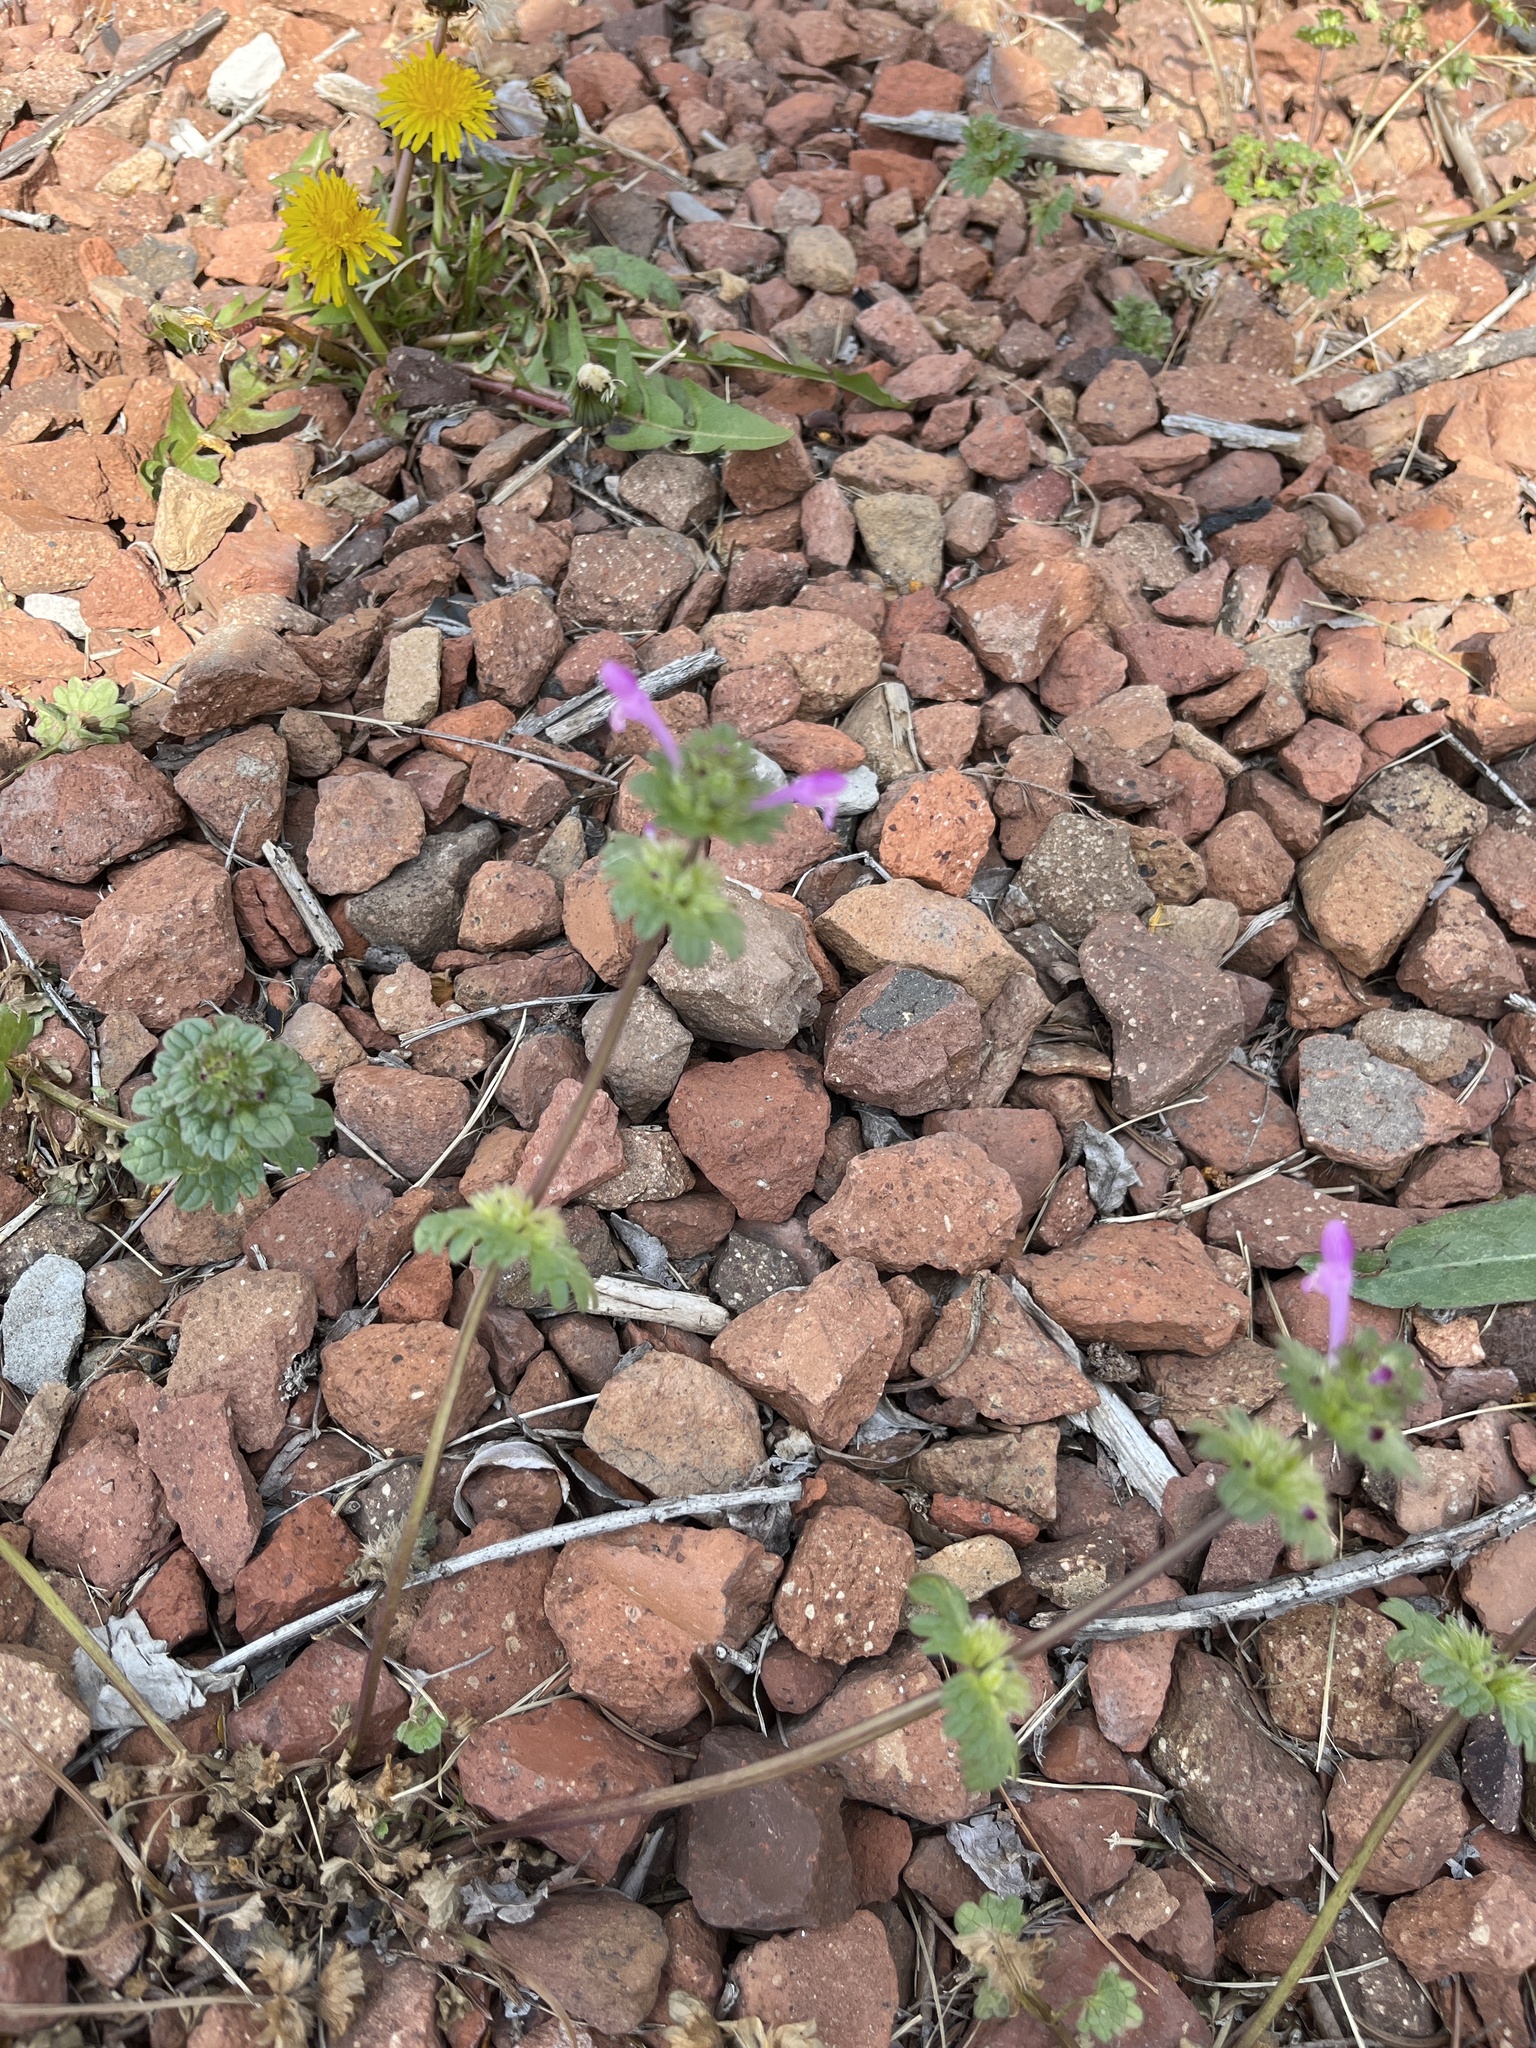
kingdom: Plantae
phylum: Tracheophyta
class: Magnoliopsida
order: Lamiales
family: Lamiaceae
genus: Lamium
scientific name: Lamium amplexicaule
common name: Henbit dead-nettle
